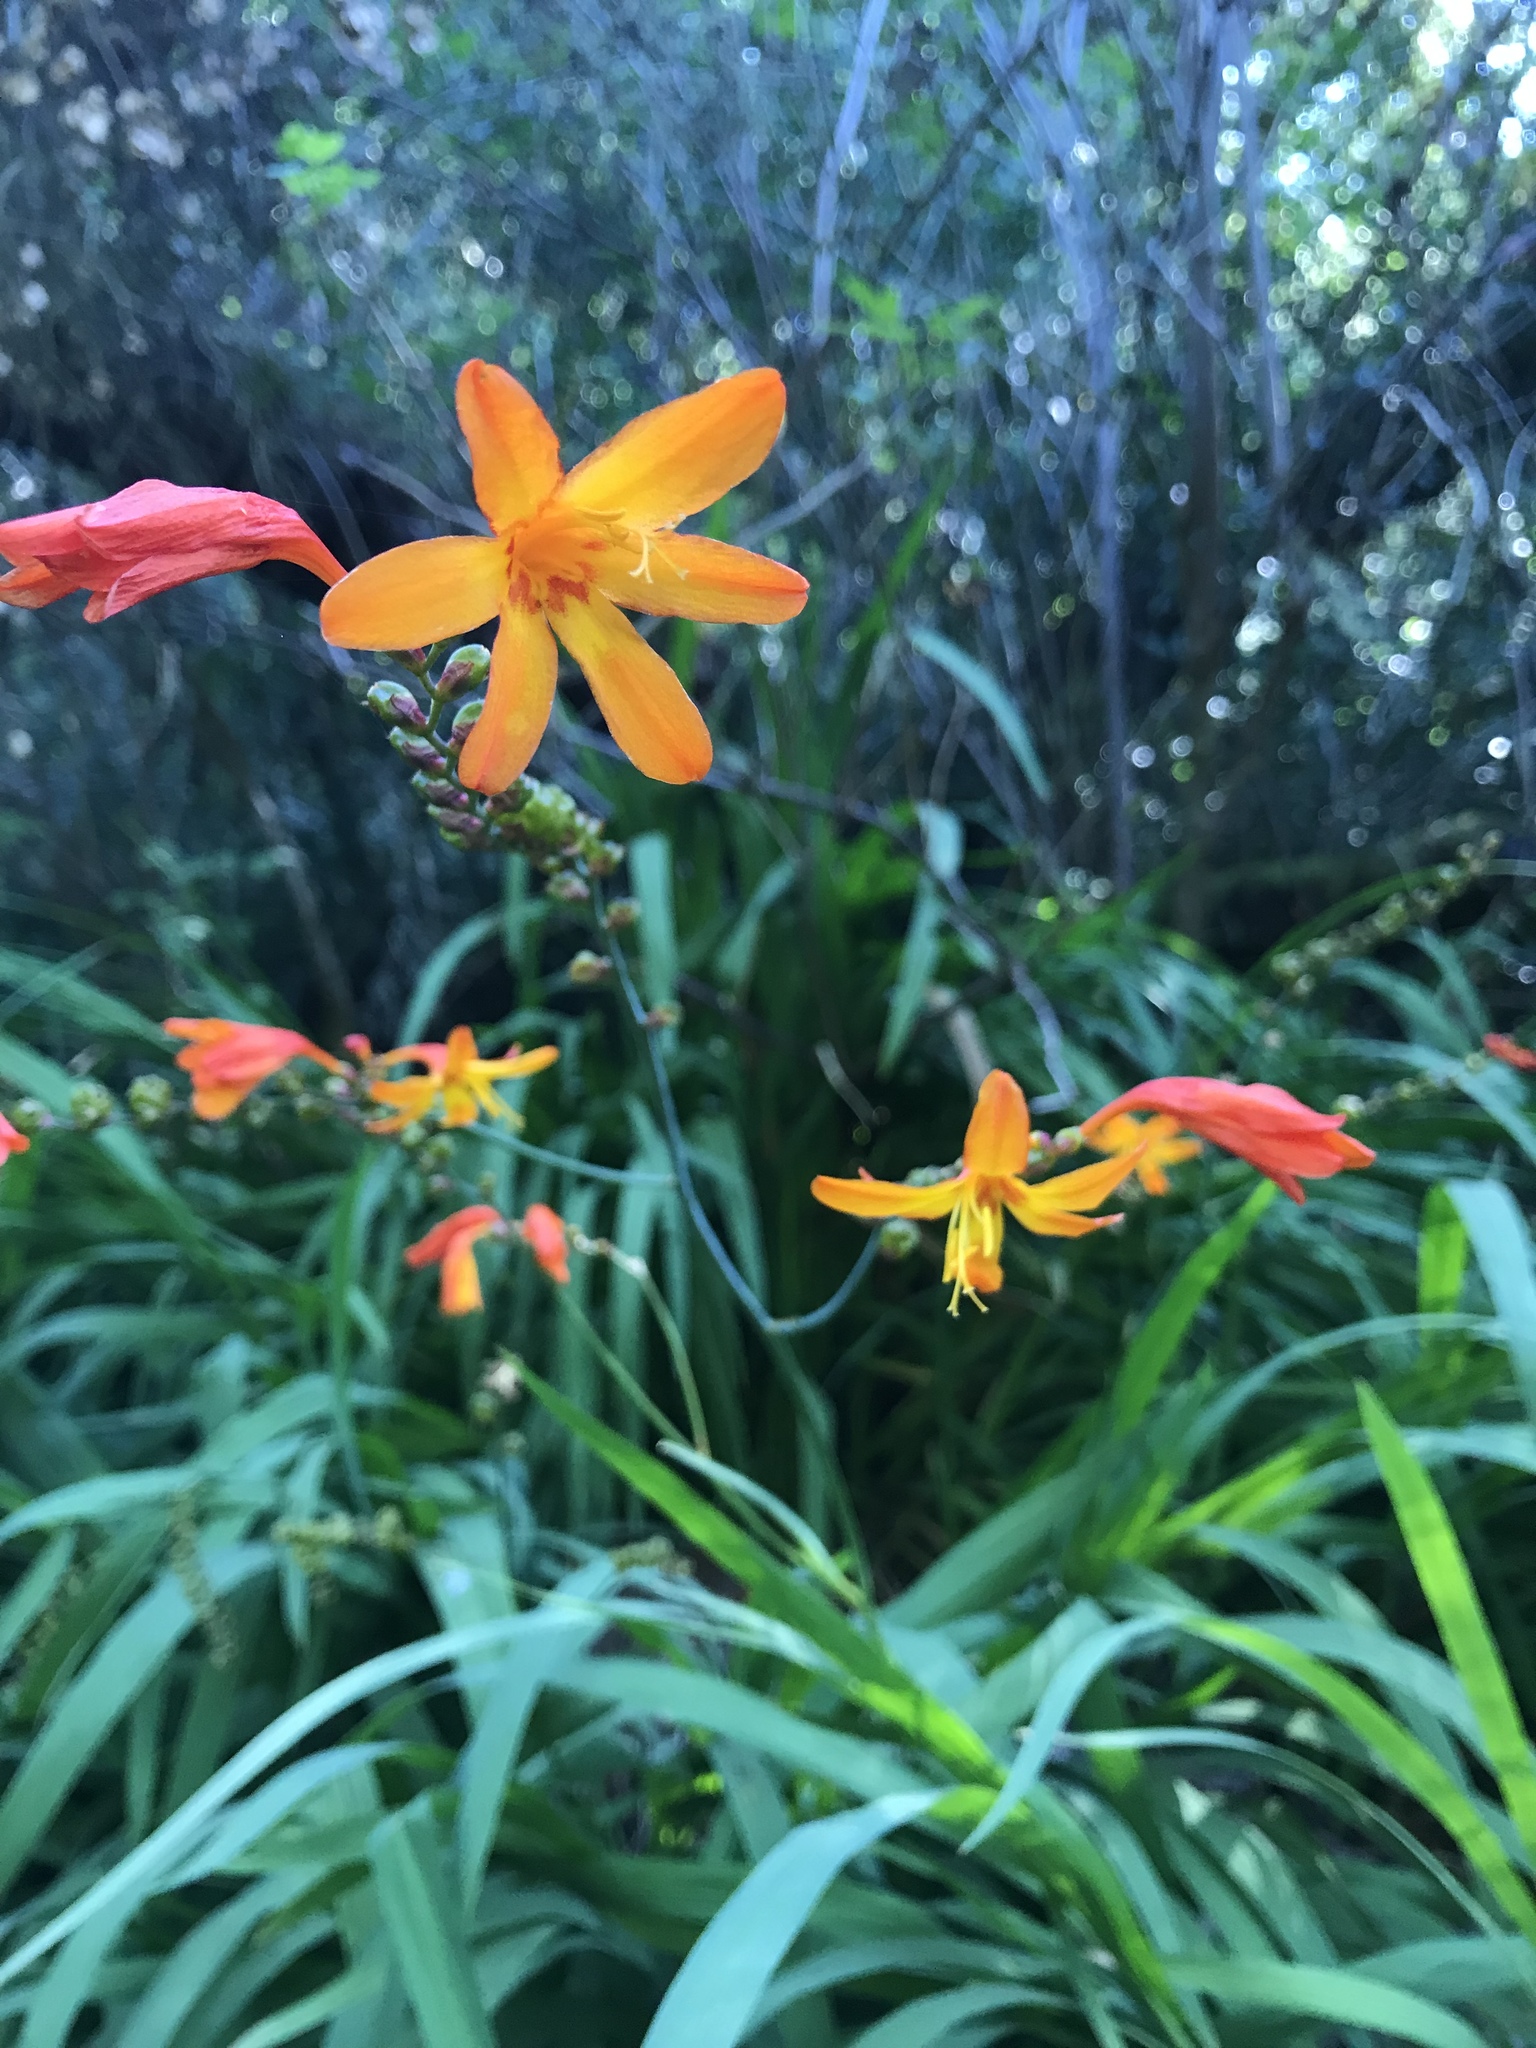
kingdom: Plantae
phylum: Tracheophyta
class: Liliopsida
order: Asparagales
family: Iridaceae
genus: Crocosmia
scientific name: Crocosmia crocosmiiflora
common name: Montbretia
